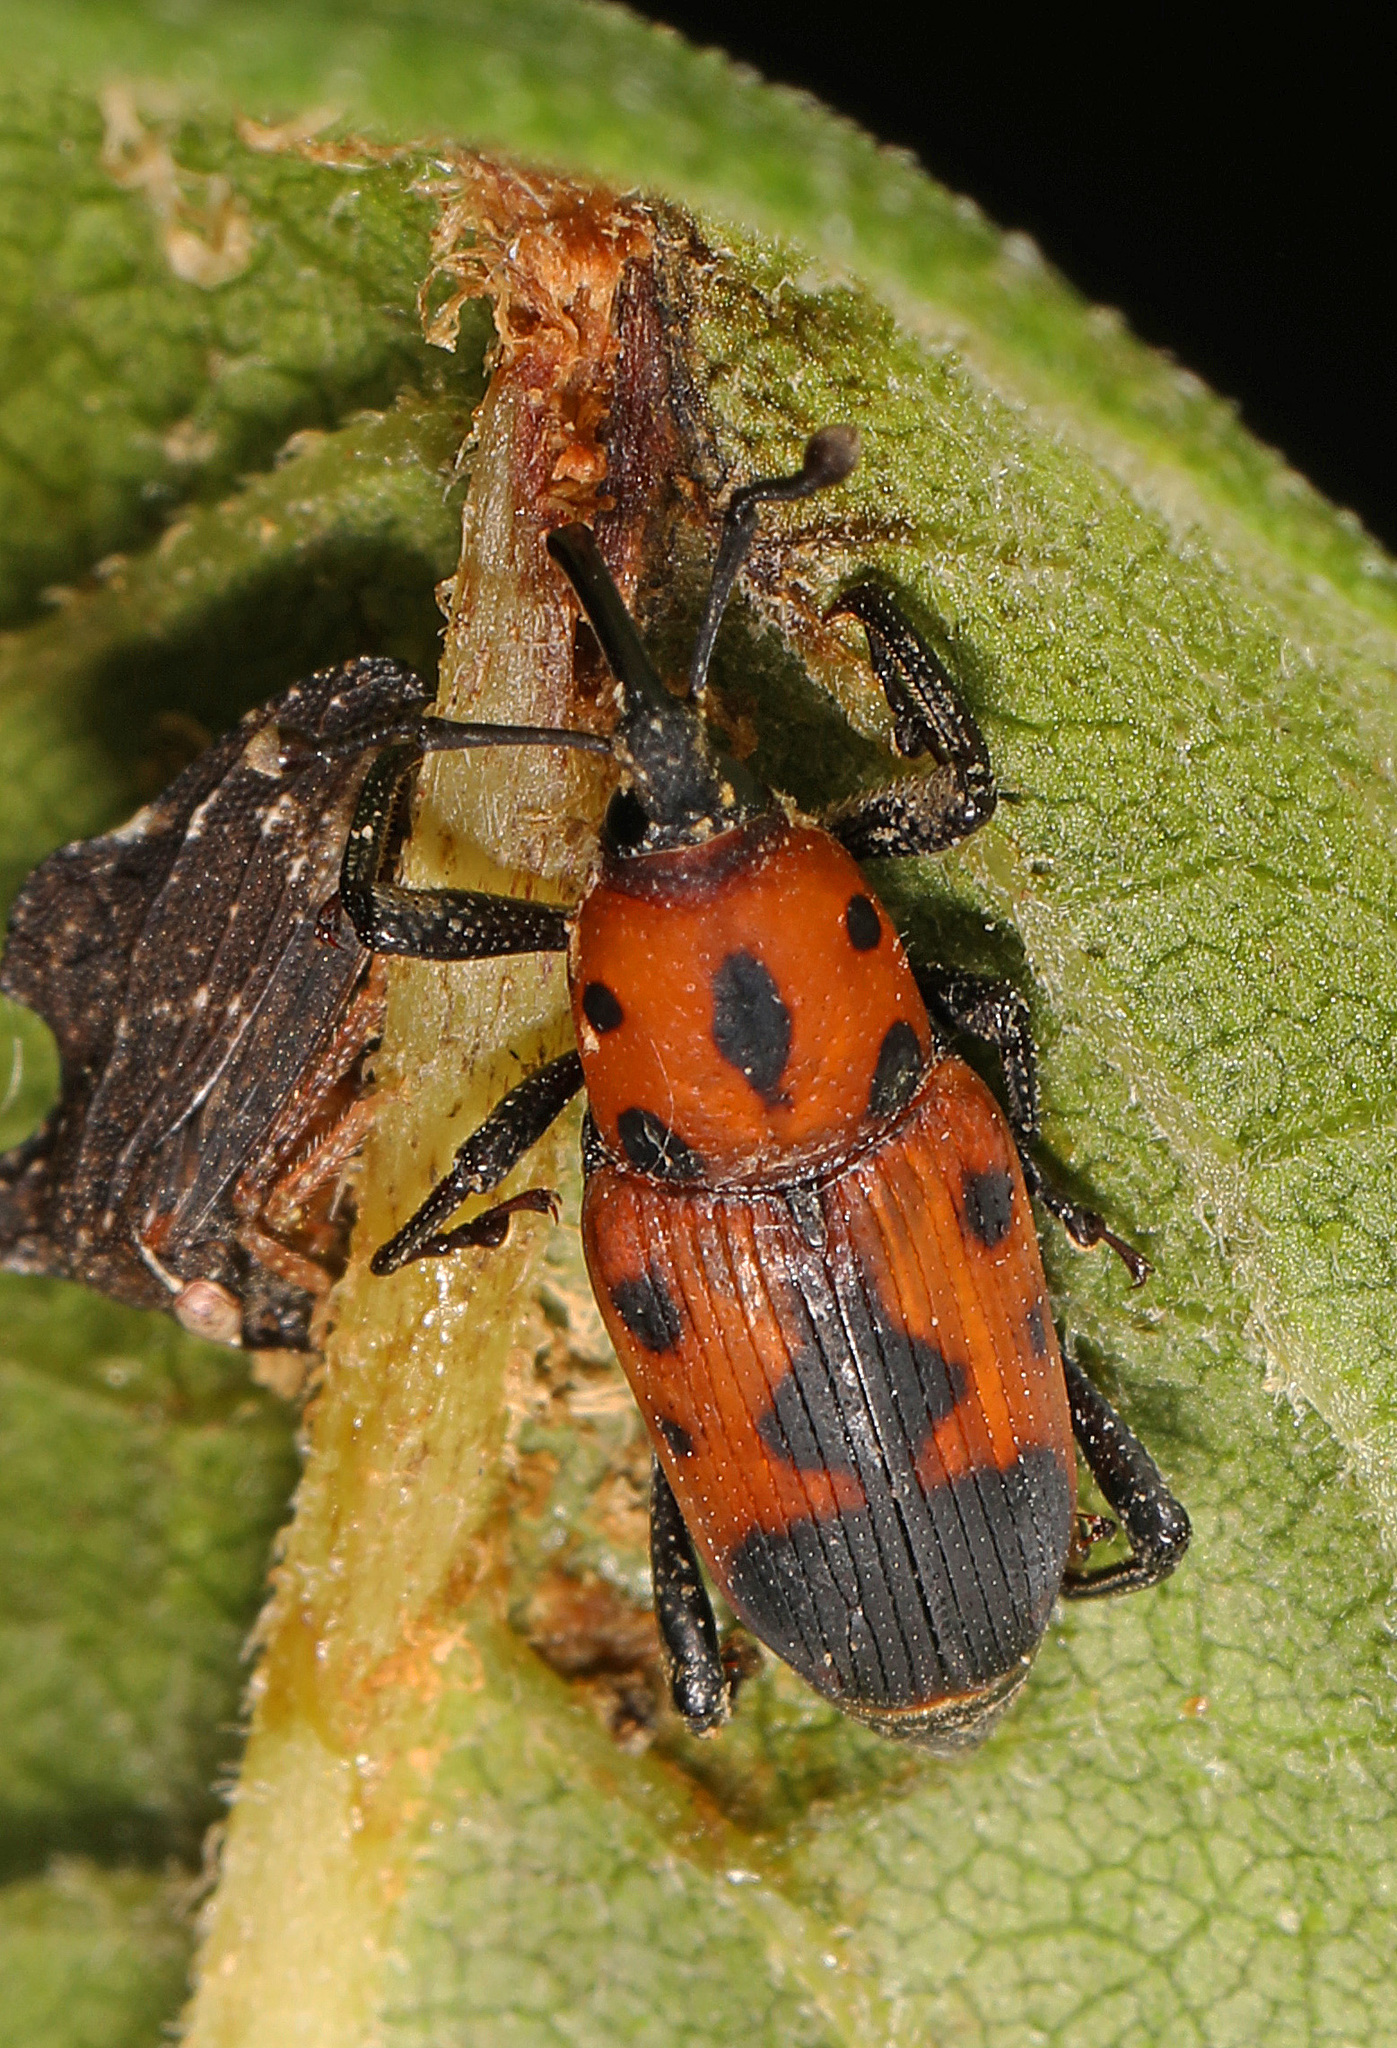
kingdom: Animalia
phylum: Arthropoda
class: Insecta
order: Coleoptera
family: Dryophthoridae
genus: Rhodobaenus
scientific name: Rhodobaenus quinquepunctatus
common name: Cocklebur weevil
